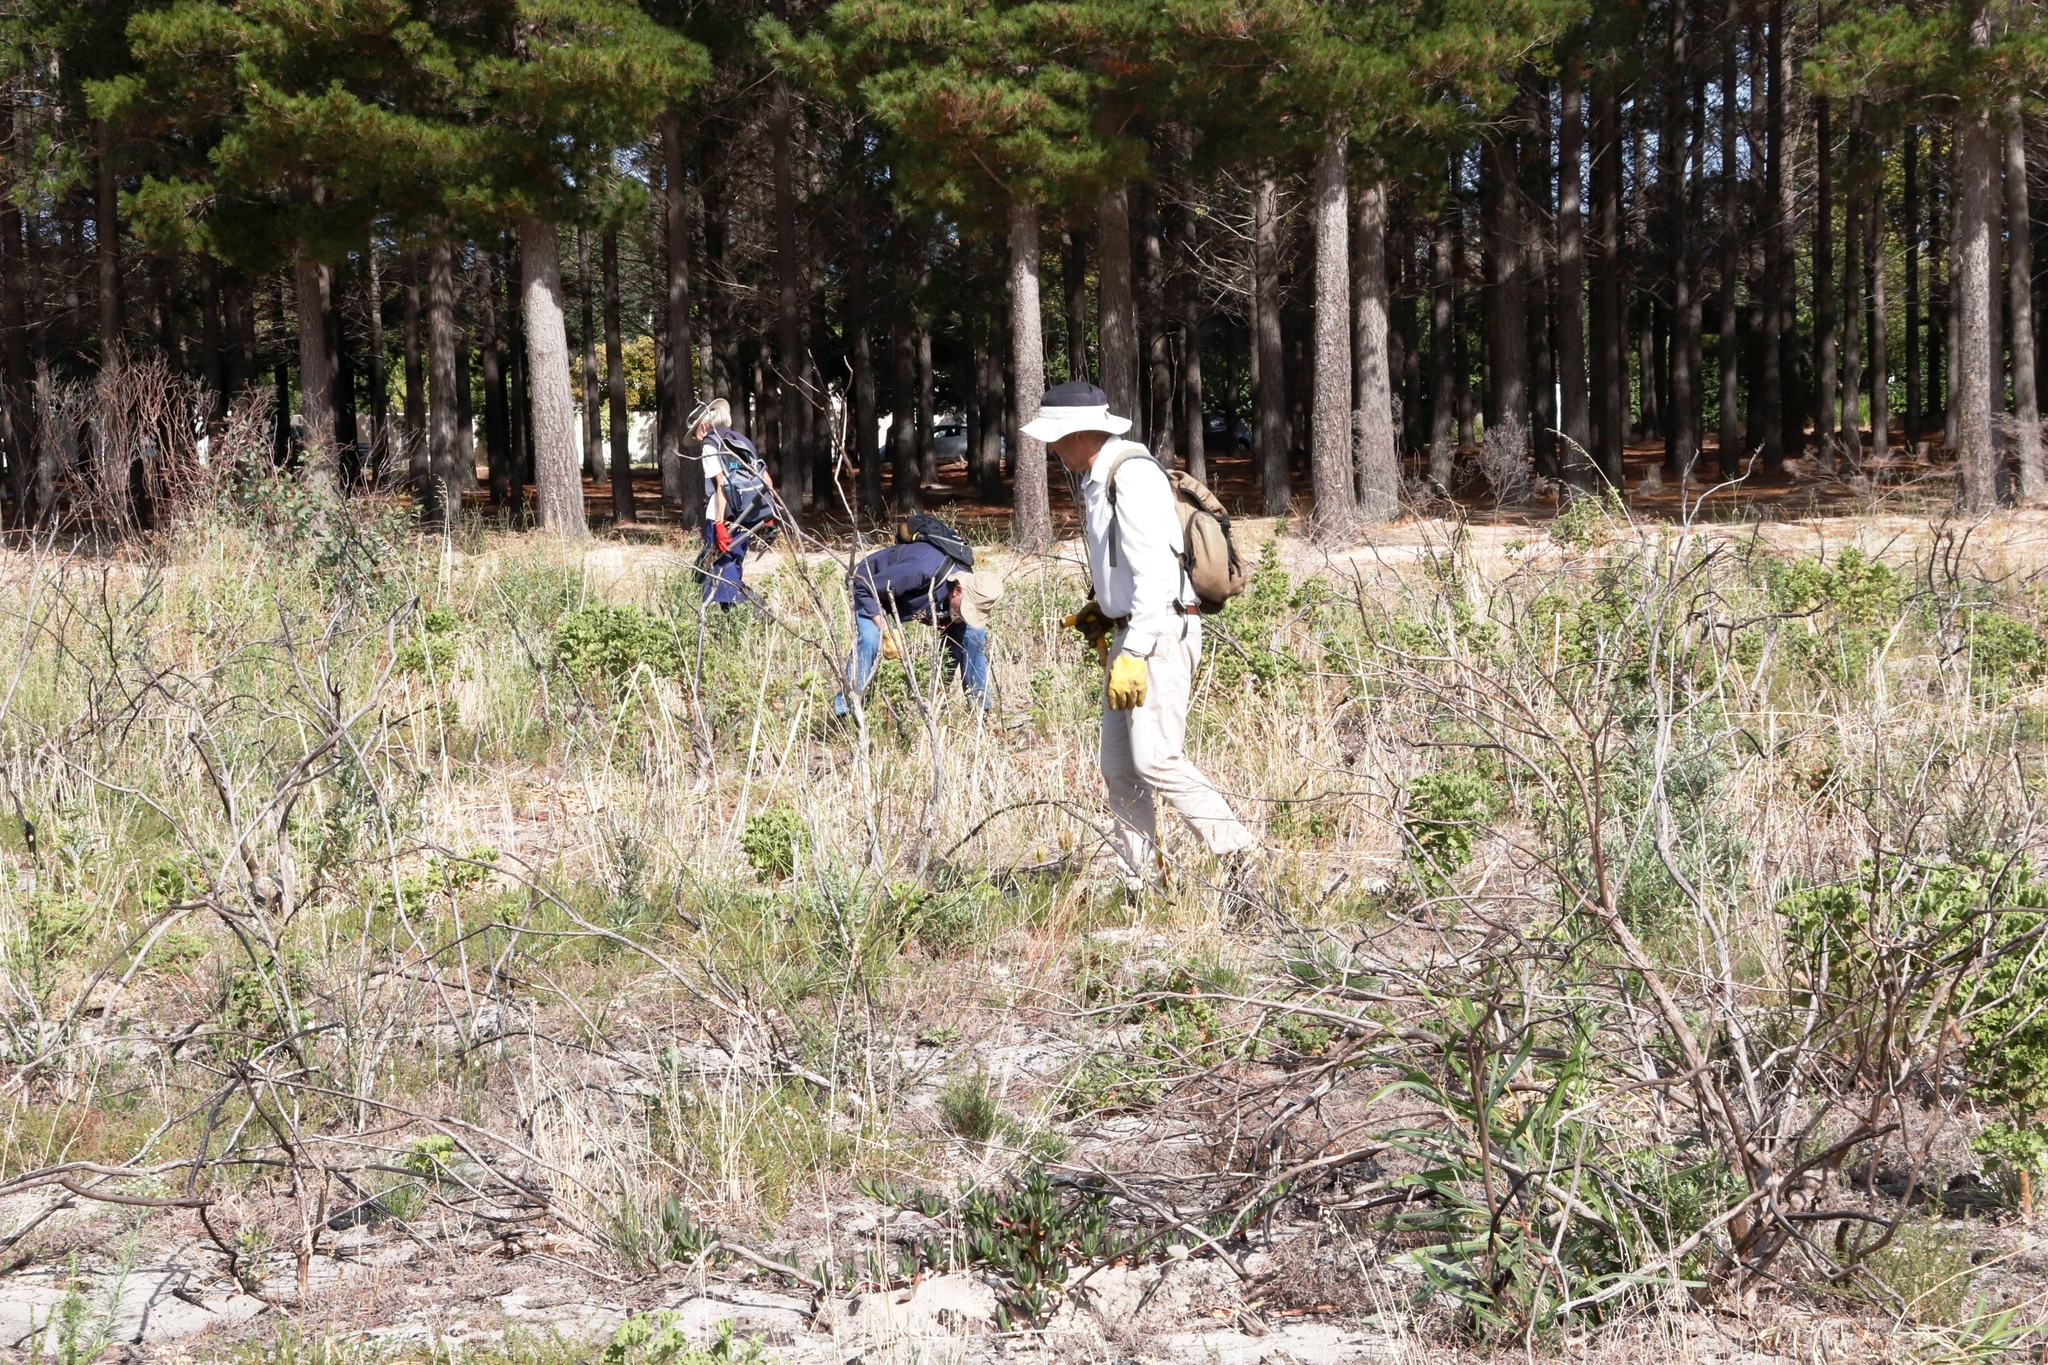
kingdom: Plantae
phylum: Tracheophyta
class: Magnoliopsida
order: Fabales
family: Fabaceae
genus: Acacia
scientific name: Acacia saligna
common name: Orange wattle
